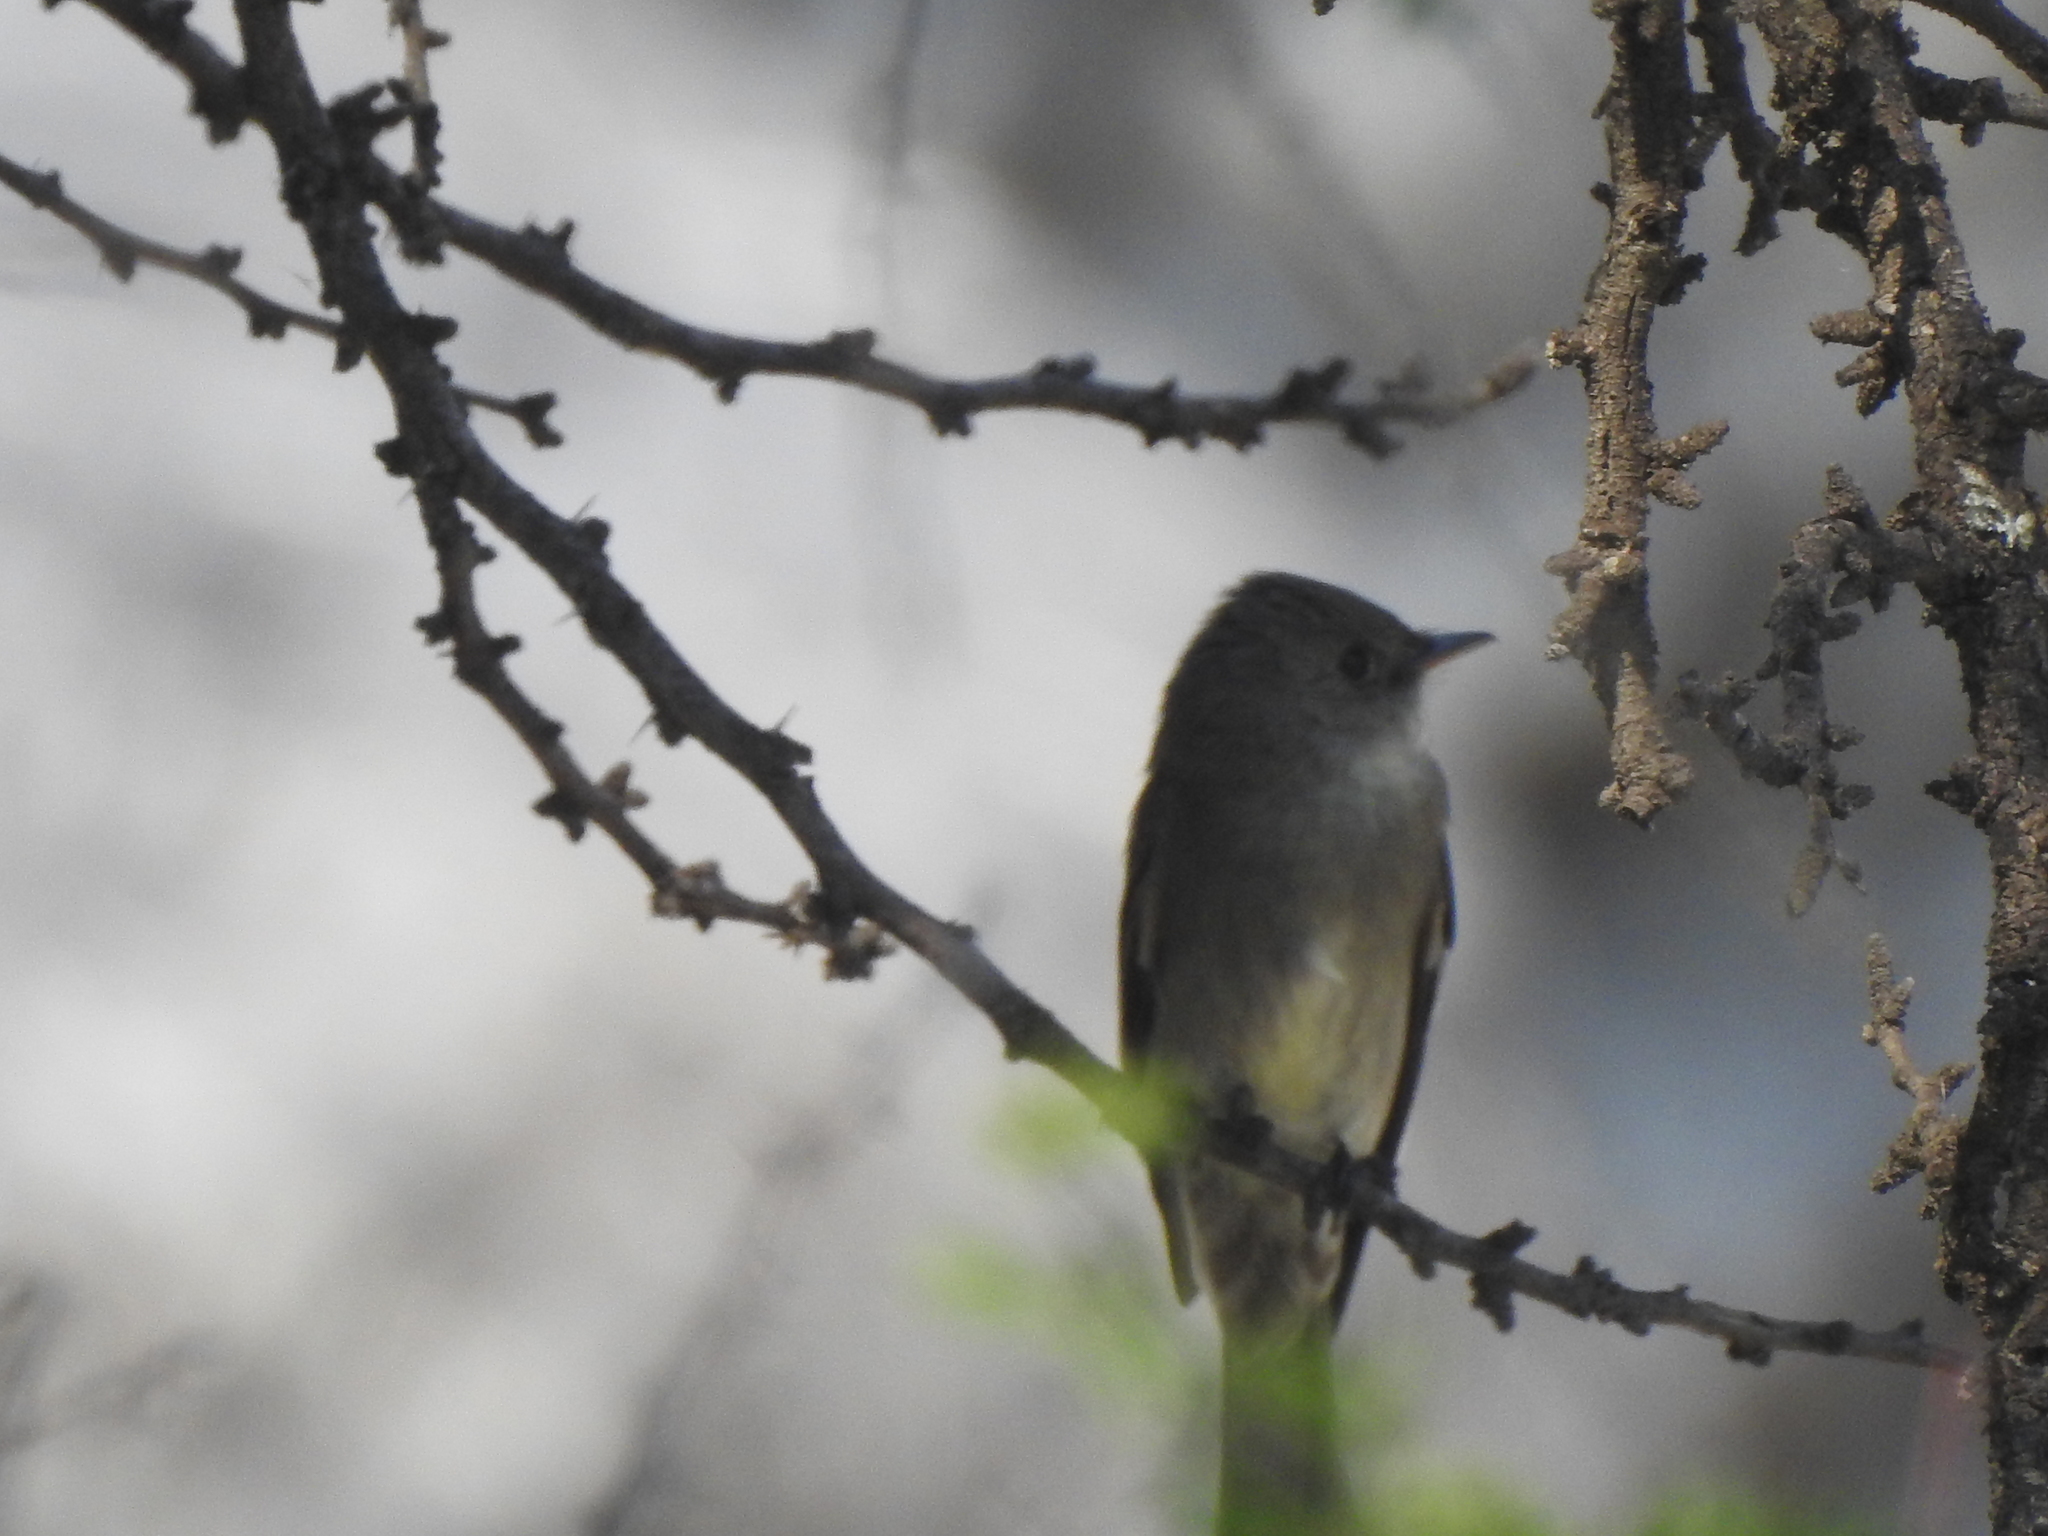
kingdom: Animalia
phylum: Chordata
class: Aves
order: Passeriformes
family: Tyrannidae
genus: Contopus
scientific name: Contopus sordidulus
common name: Western wood-pewee
